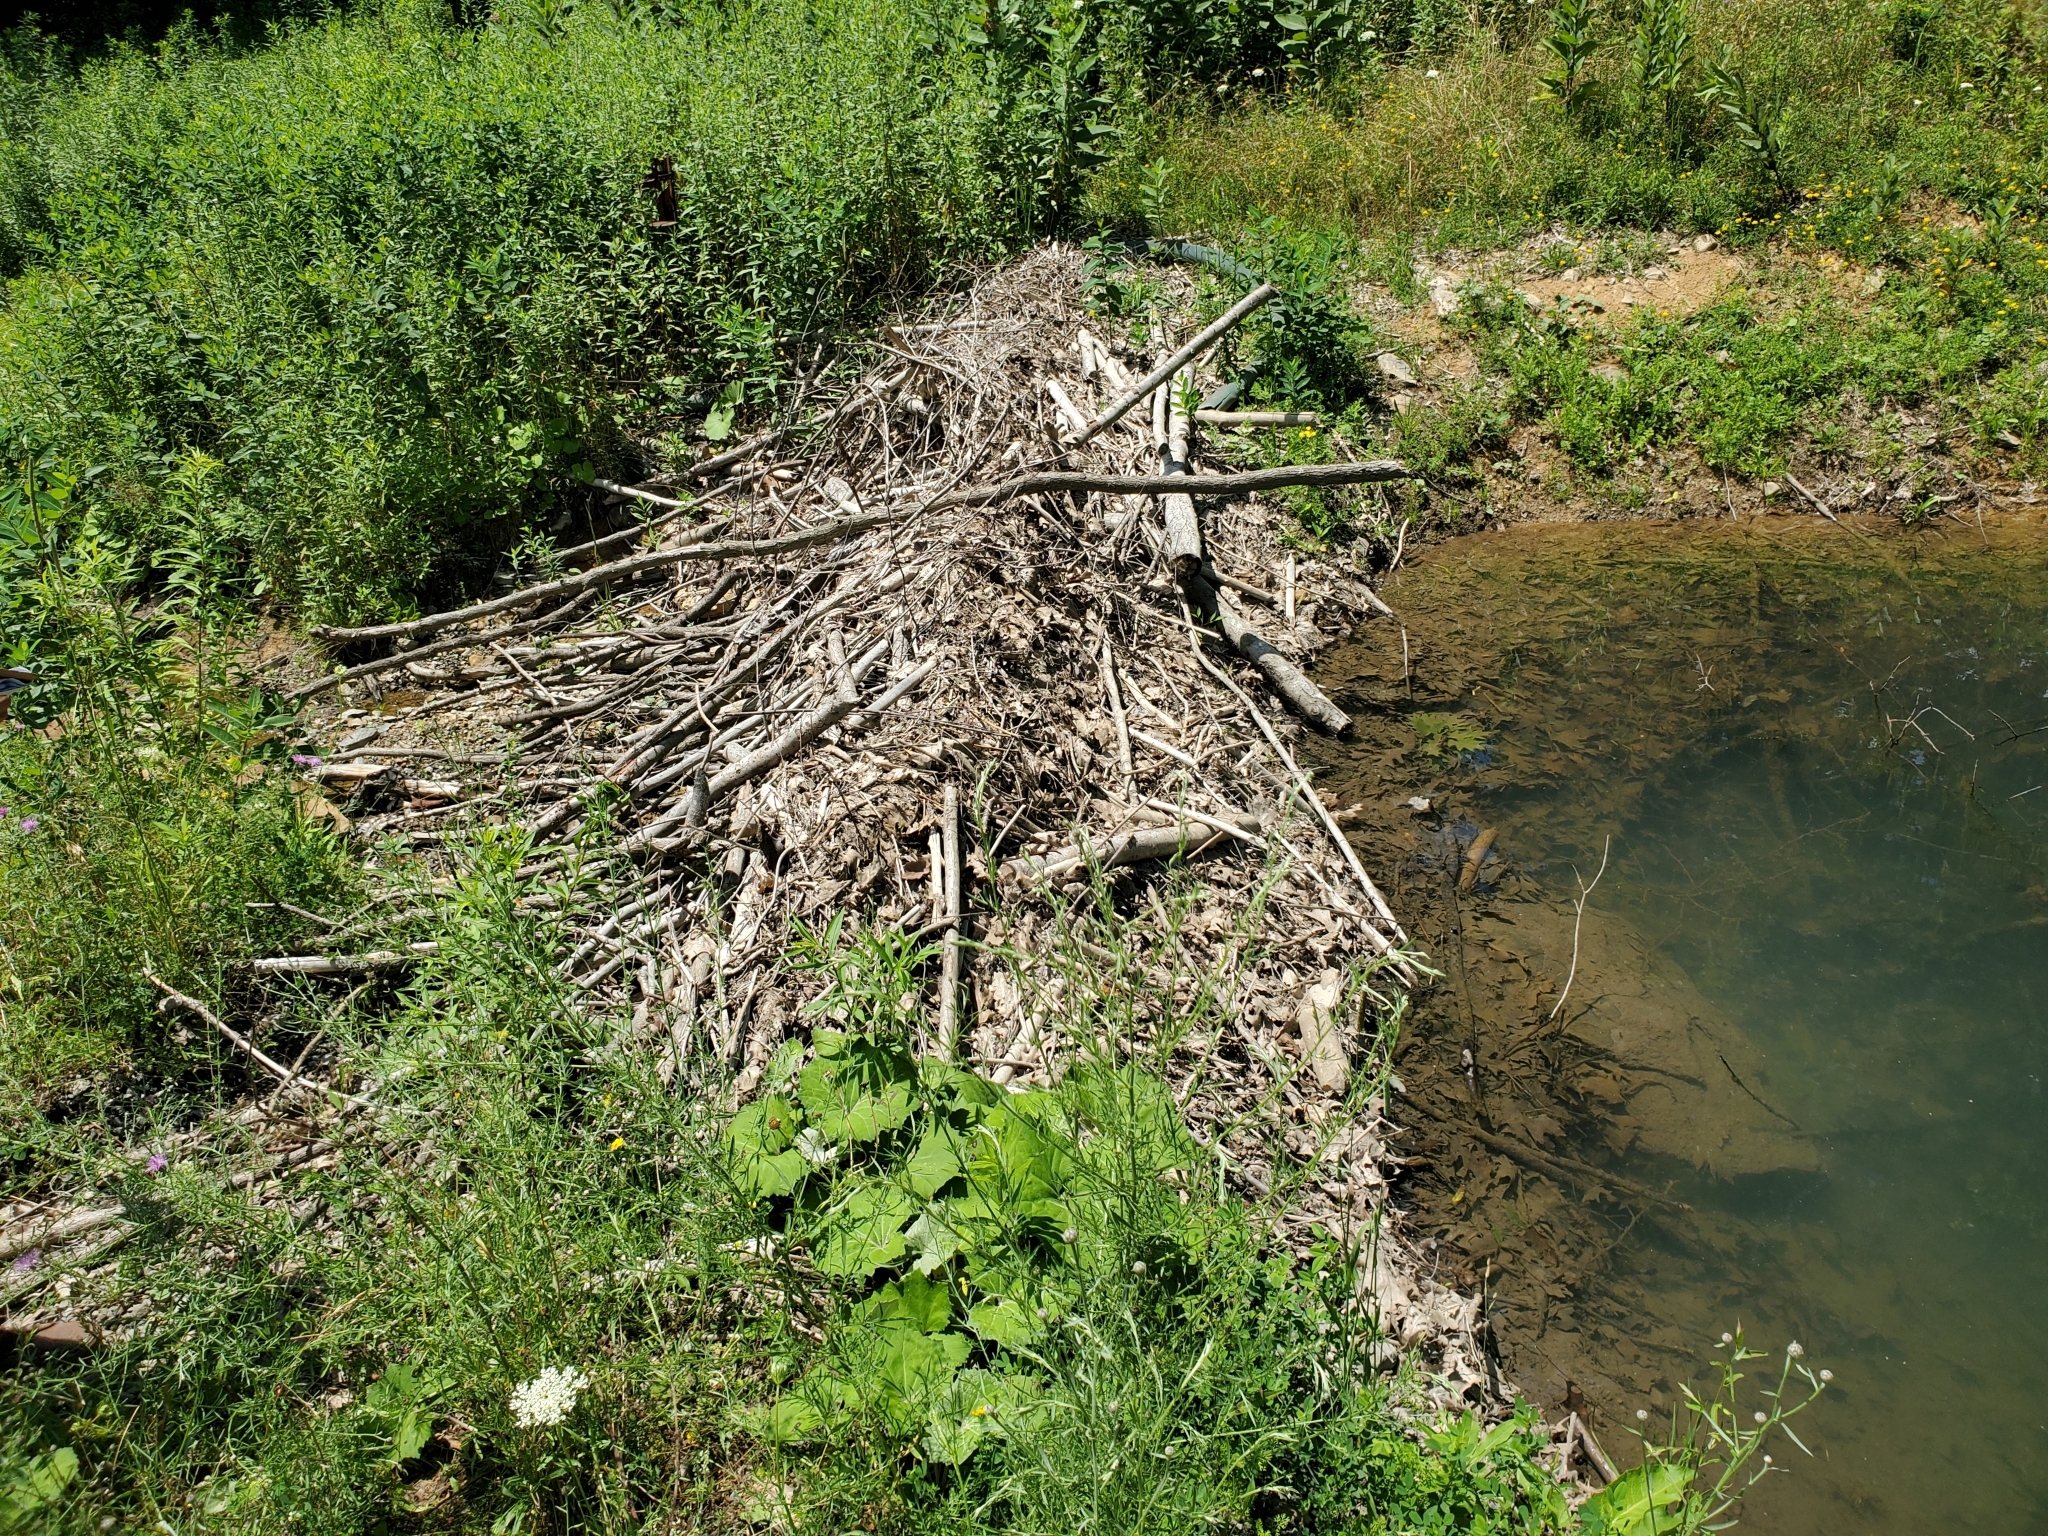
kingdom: Animalia
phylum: Chordata
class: Mammalia
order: Rodentia
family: Castoridae
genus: Castor
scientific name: Castor canadensis
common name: American beaver
